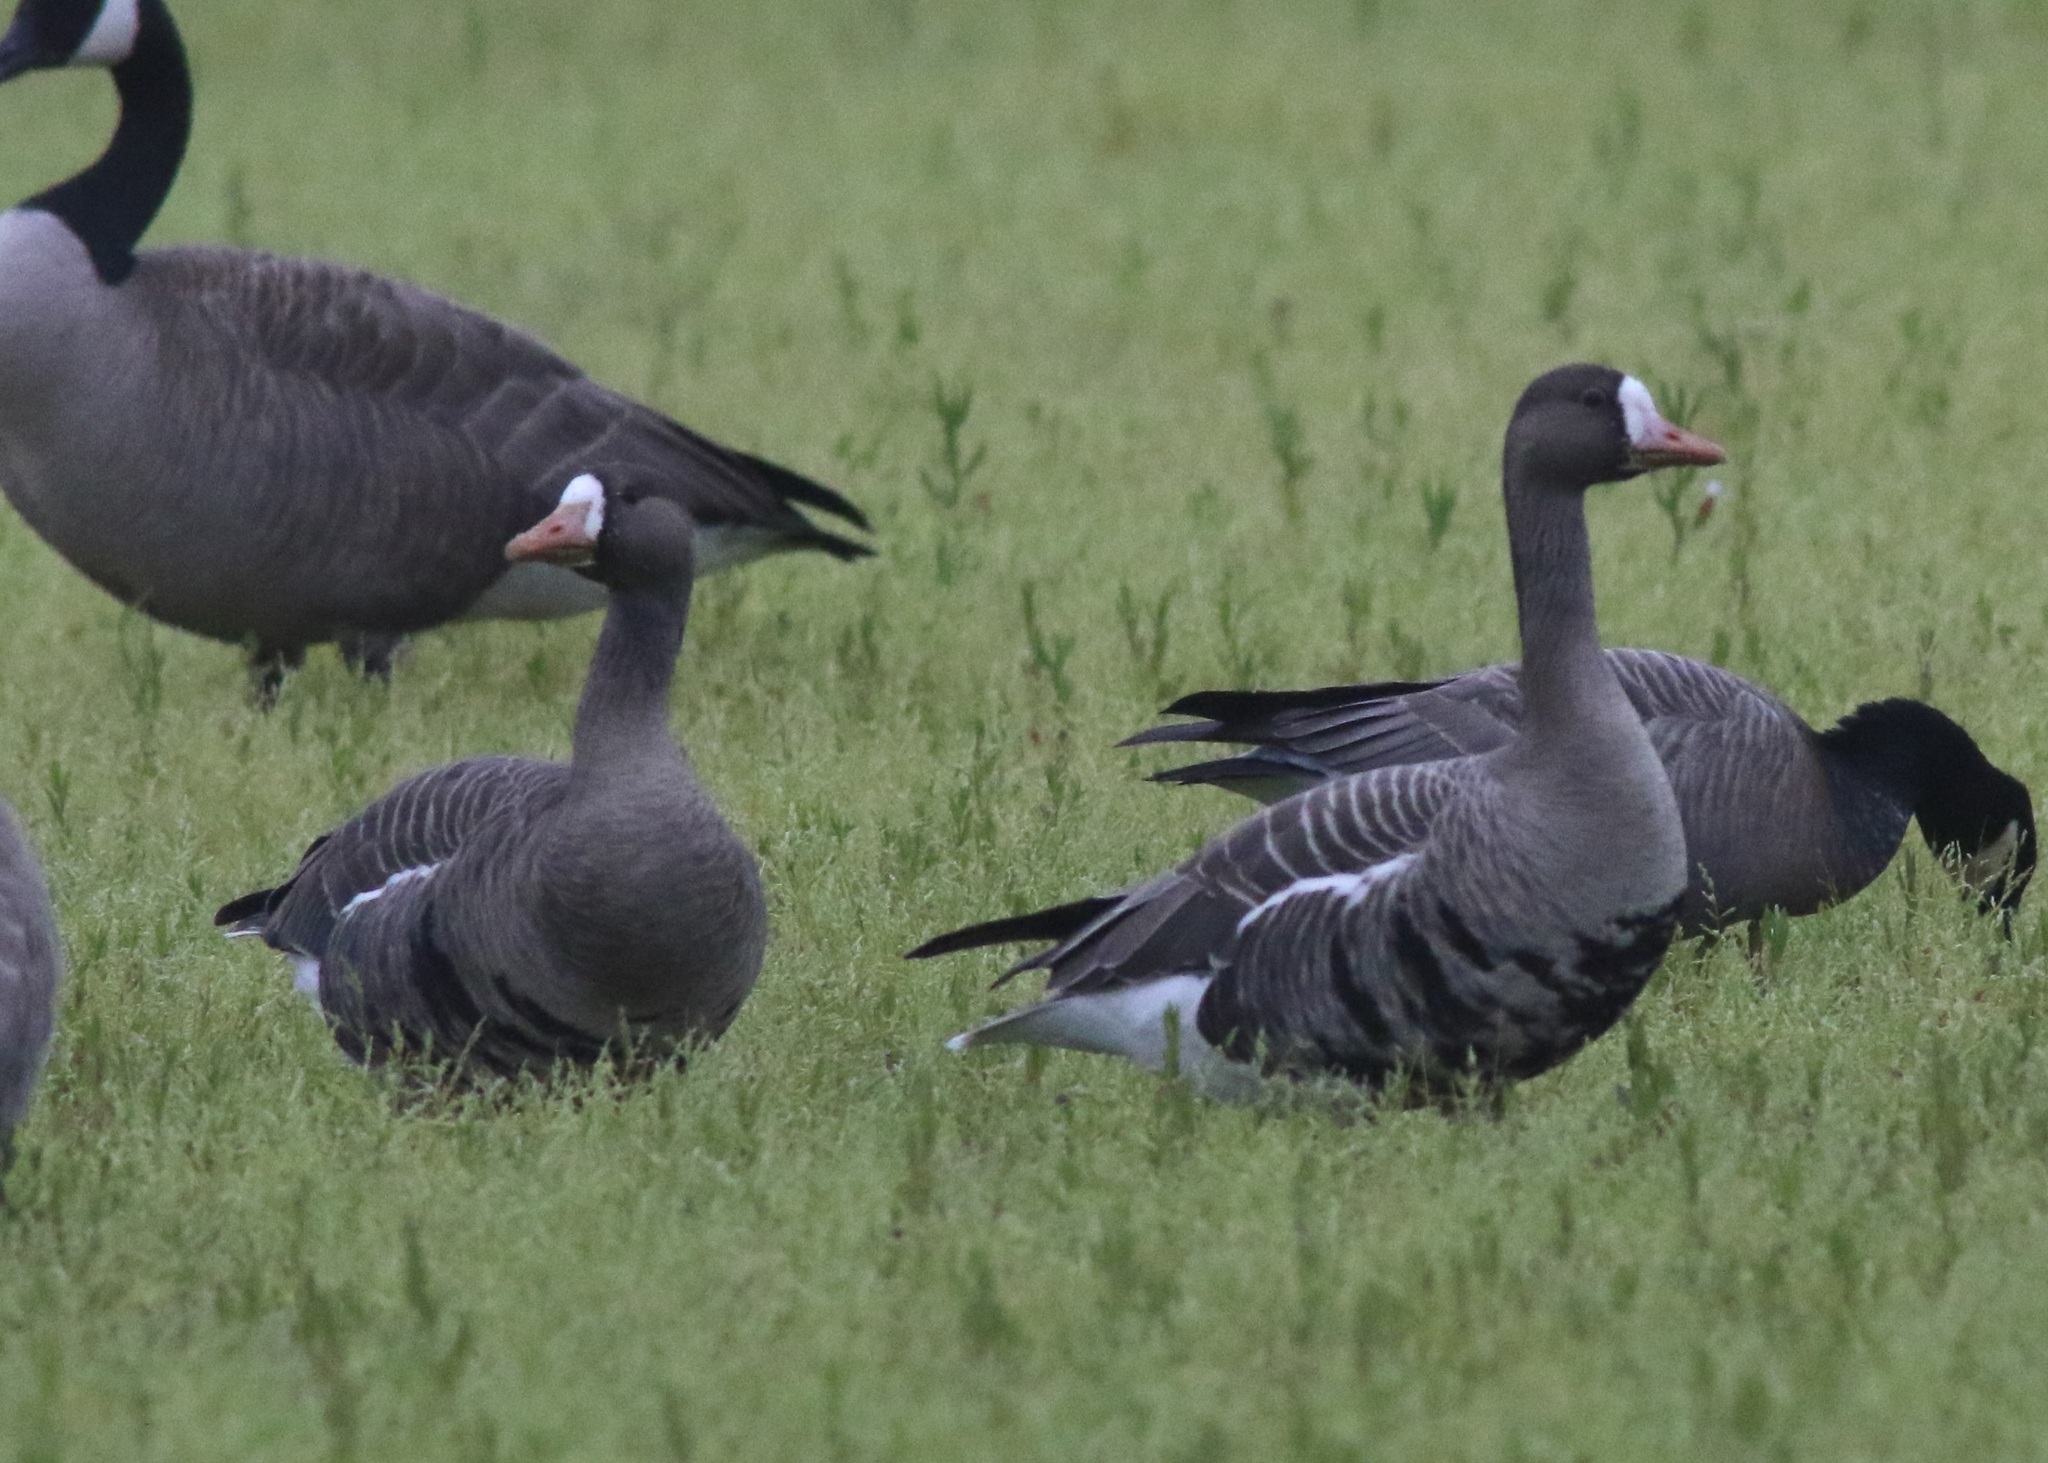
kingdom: Animalia
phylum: Chordata
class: Aves
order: Anseriformes
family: Anatidae
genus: Anser
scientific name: Anser albifrons
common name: Greater white-fronted goose
